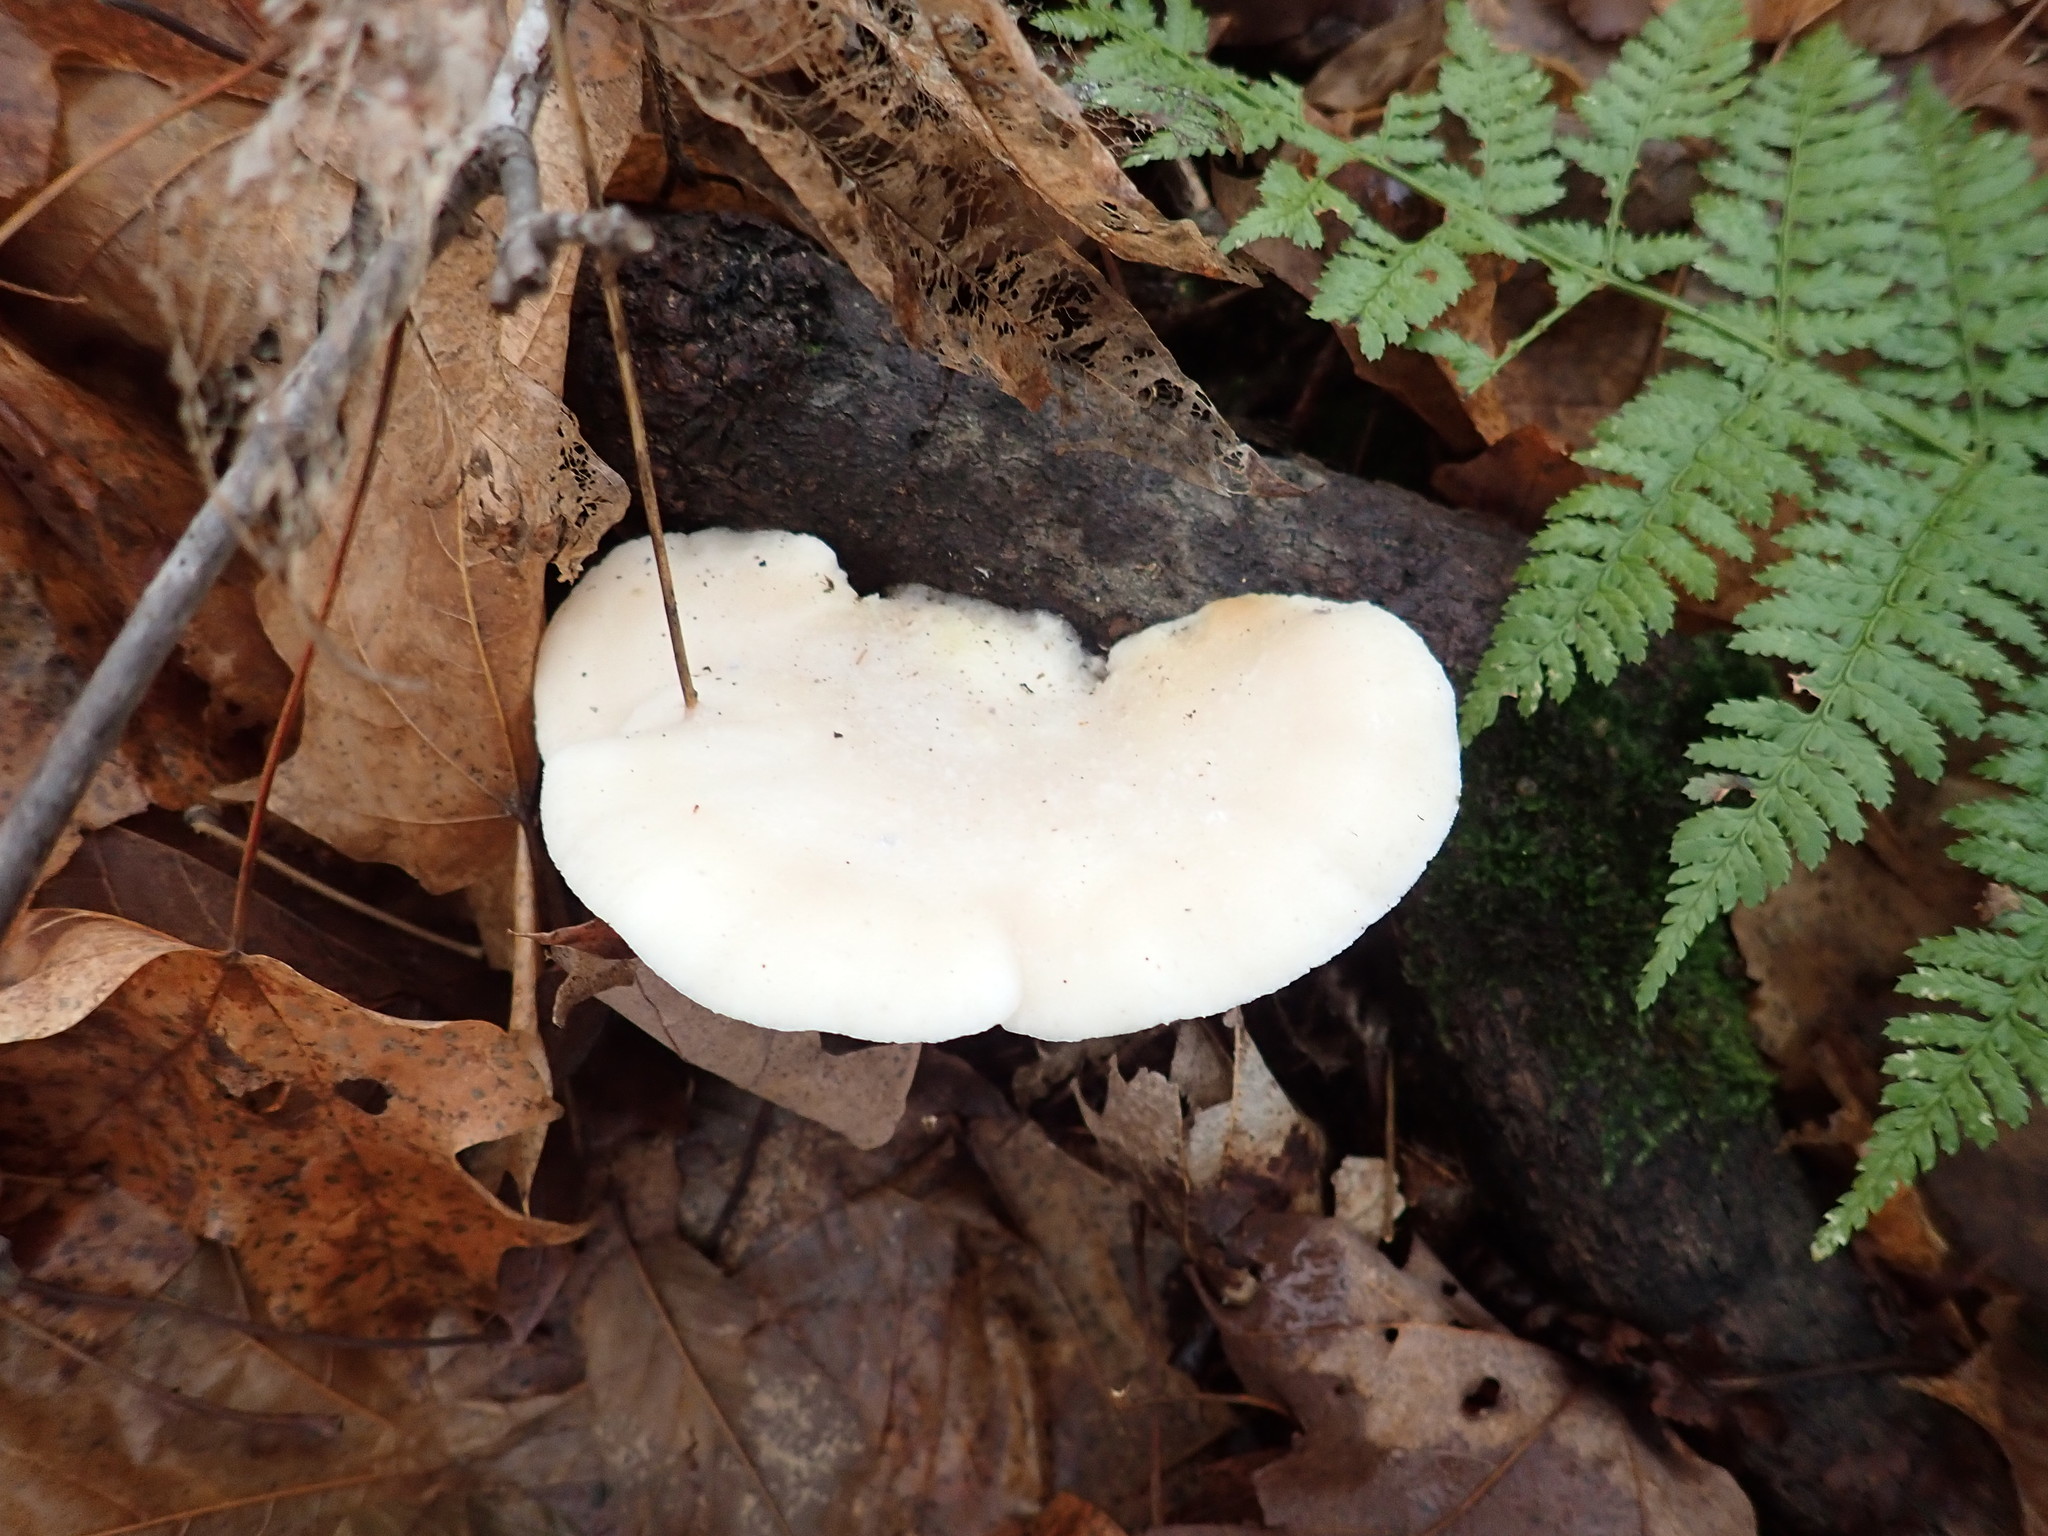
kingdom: Fungi
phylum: Basidiomycota
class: Agaricomycetes
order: Polyporales
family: Incrustoporiaceae
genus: Tyromyces
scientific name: Tyromyces chioneus
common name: White cheese polypore
